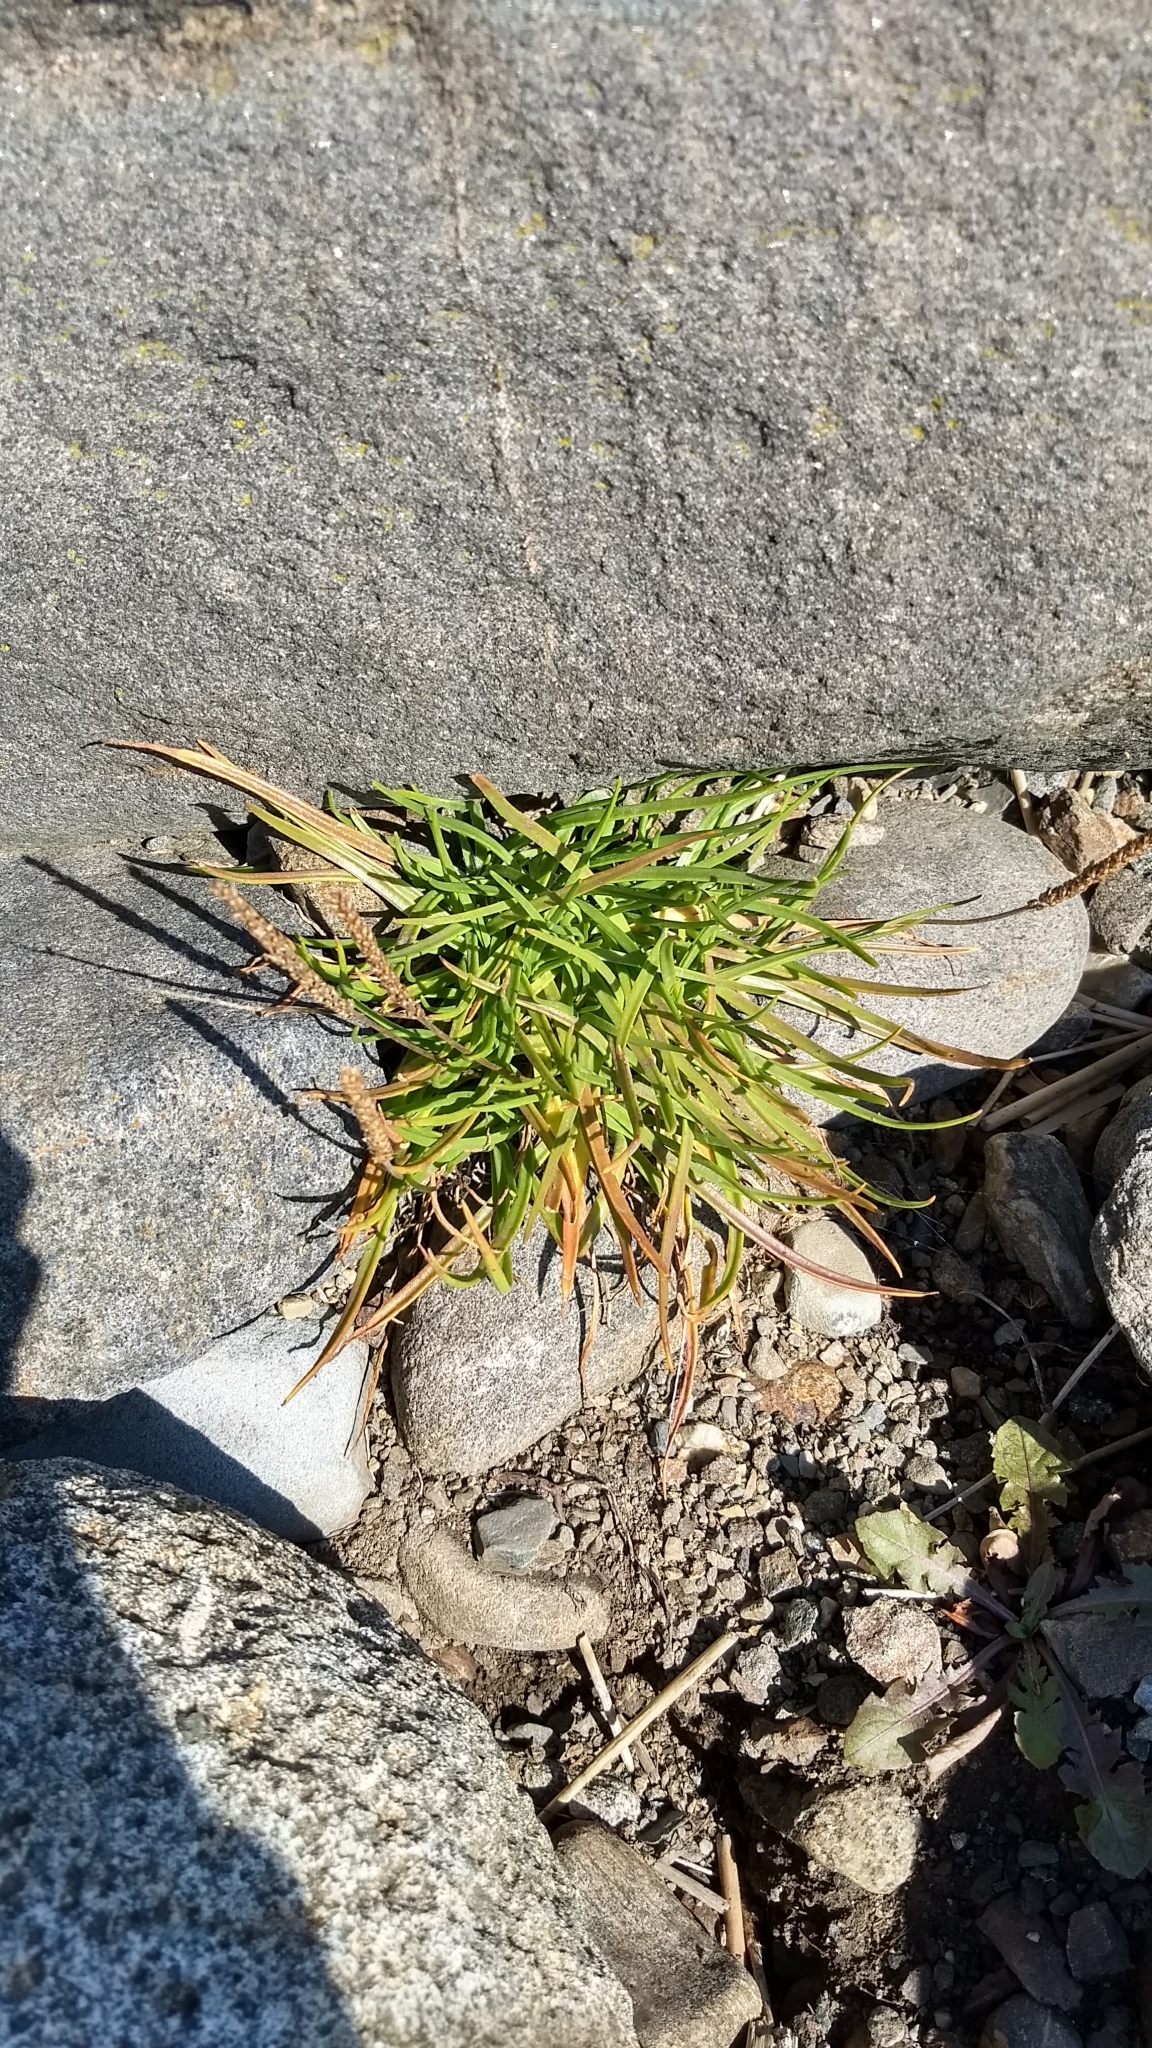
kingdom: Plantae
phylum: Tracheophyta
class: Magnoliopsida
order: Lamiales
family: Plantaginaceae
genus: Plantago
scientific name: Plantago maritima
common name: Sea plantain
